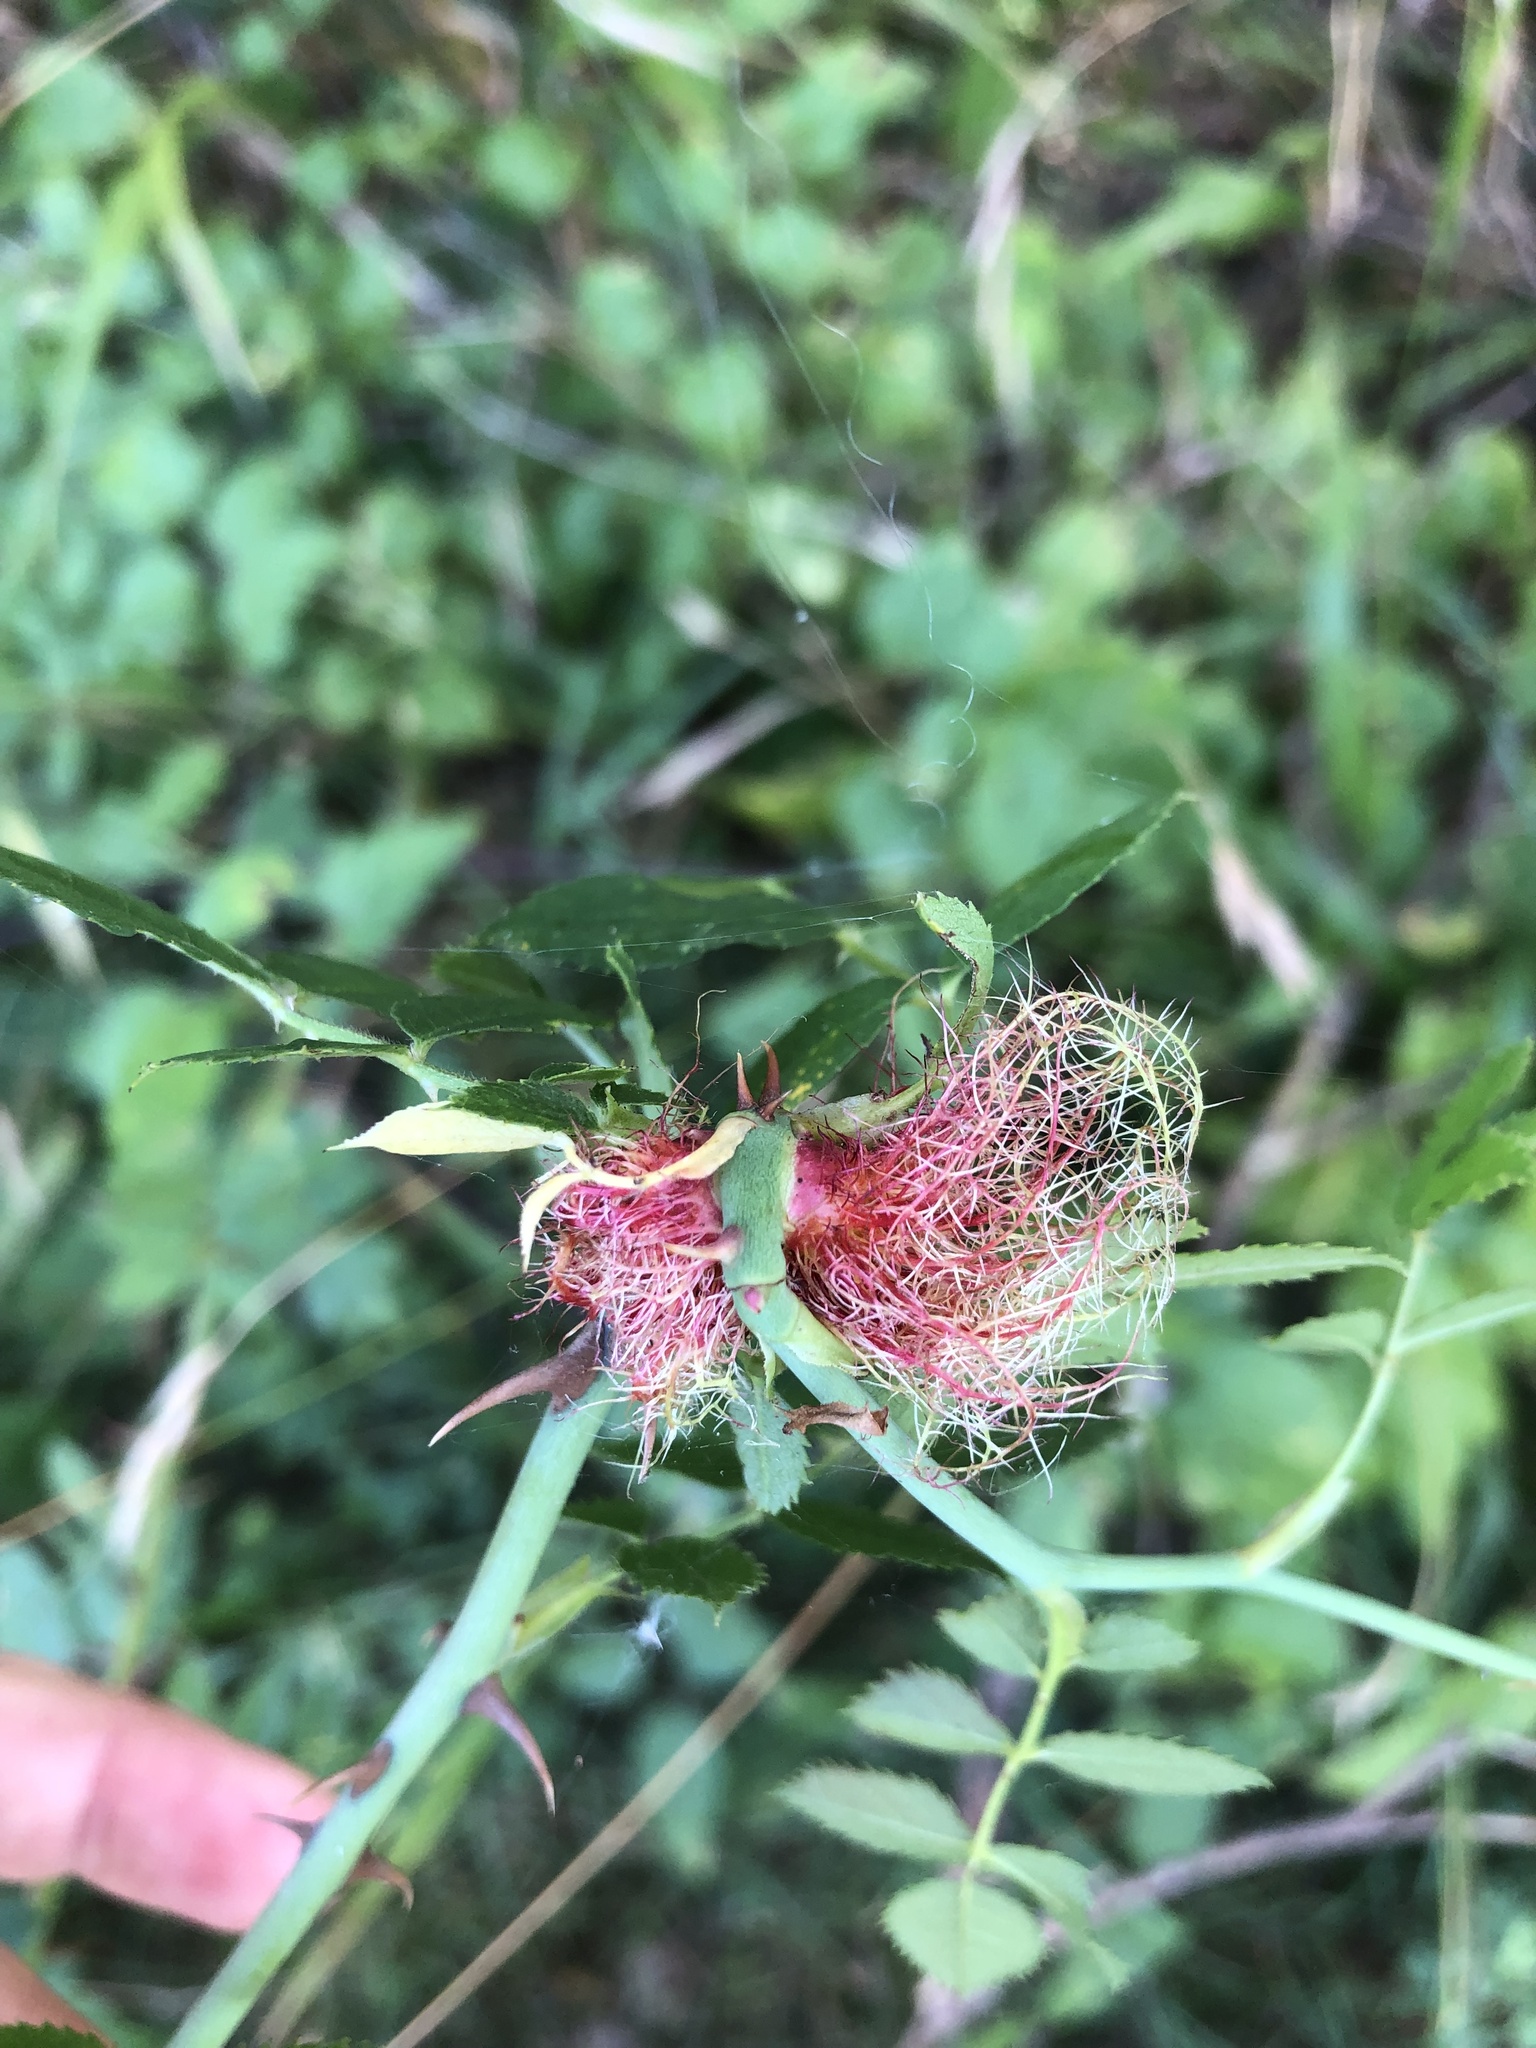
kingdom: Animalia
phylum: Arthropoda
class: Insecta
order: Hymenoptera
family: Cynipidae
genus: Diplolepis
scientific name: Diplolepis rosae
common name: Bedeguar gall
